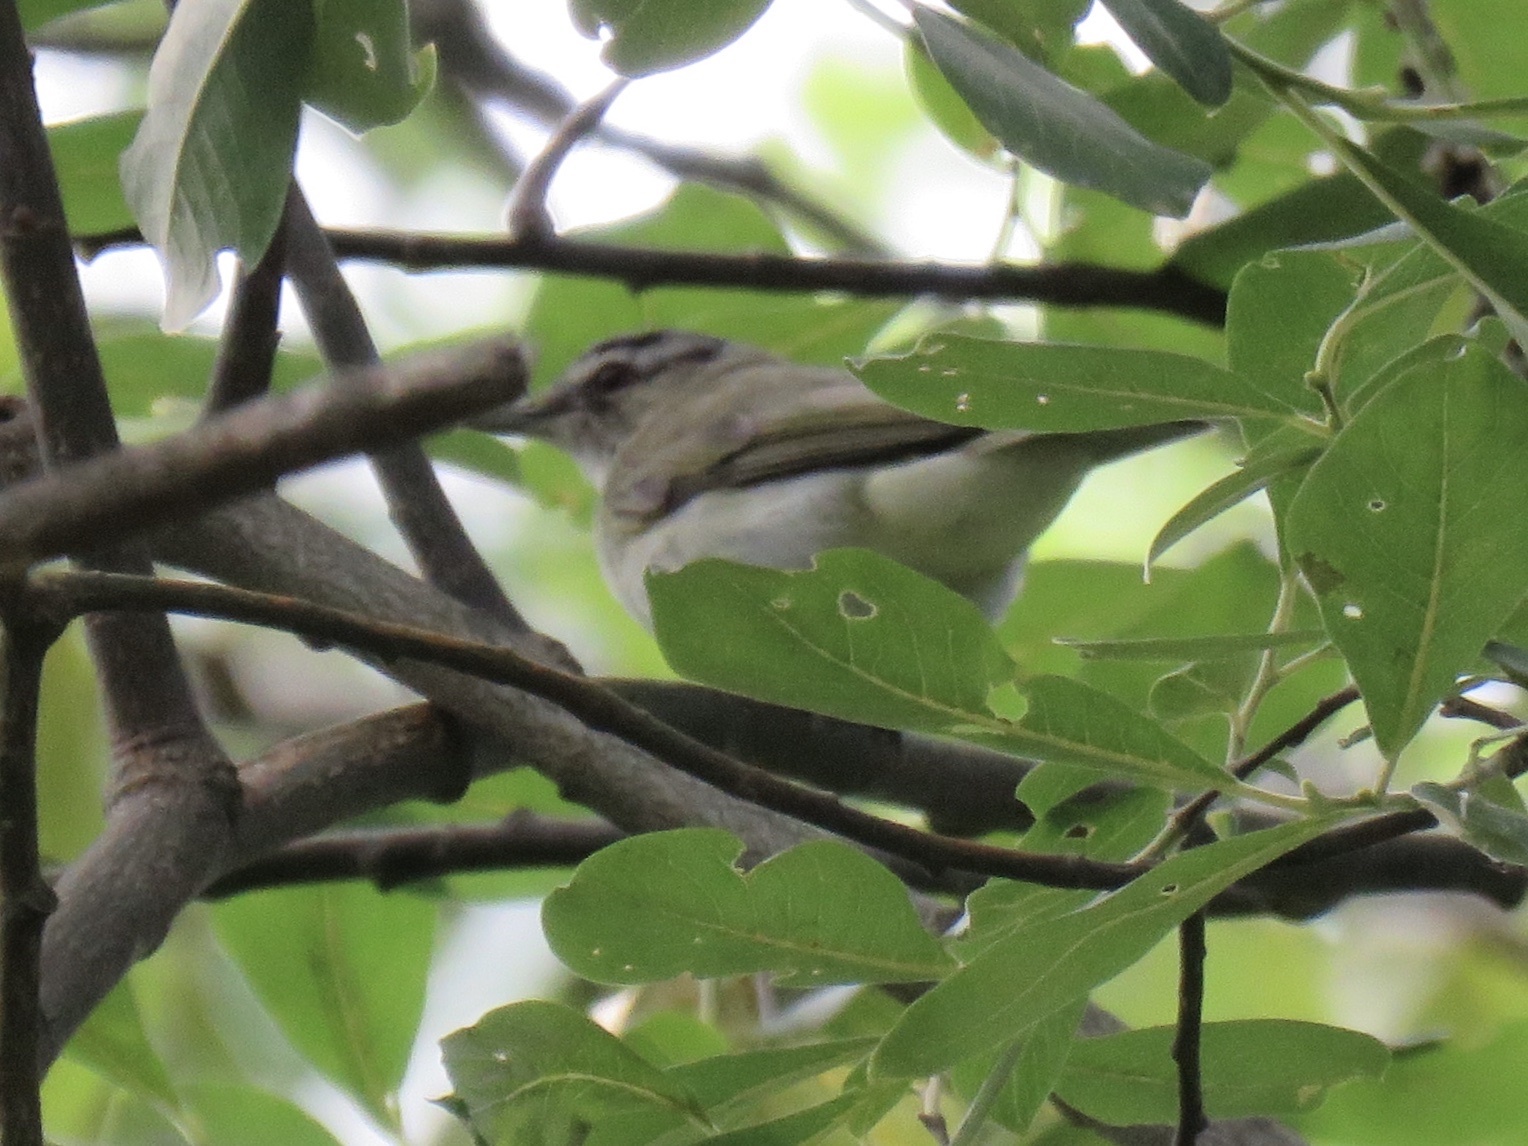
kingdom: Animalia
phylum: Chordata
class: Aves
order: Passeriformes
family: Vireonidae
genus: Vireo
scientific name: Vireo olivaceus
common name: Red-eyed vireo
